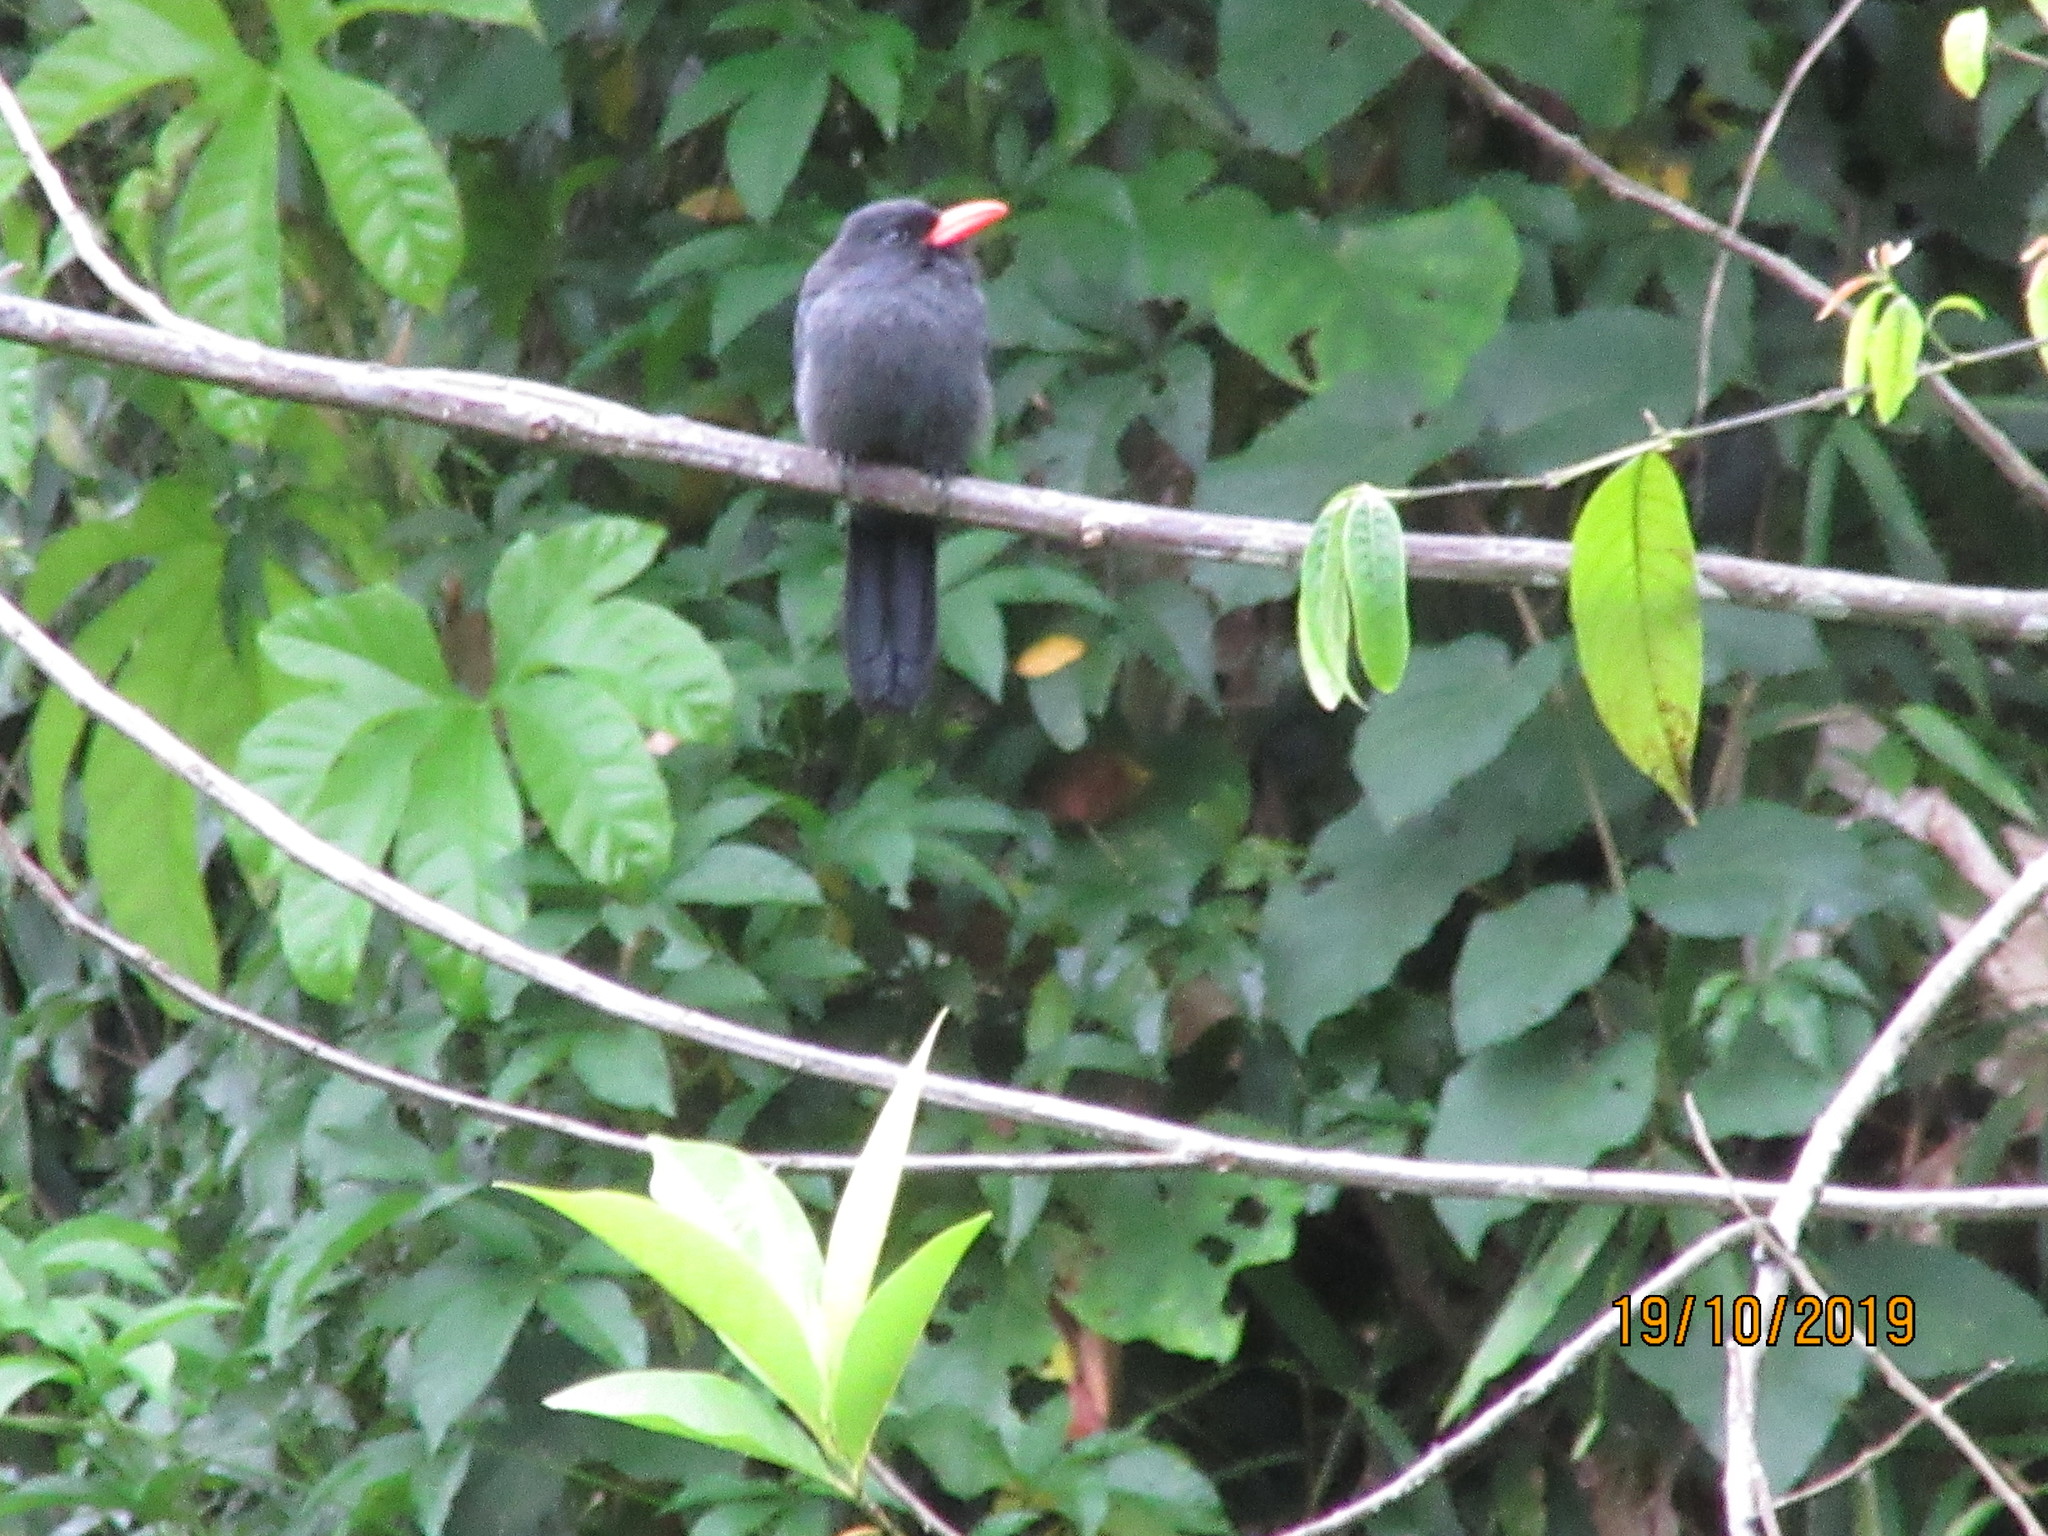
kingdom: Animalia
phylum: Chordata
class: Aves
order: Piciformes
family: Bucconidae
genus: Monasa
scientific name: Monasa nigrifrons
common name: Black-fronted nunbird
